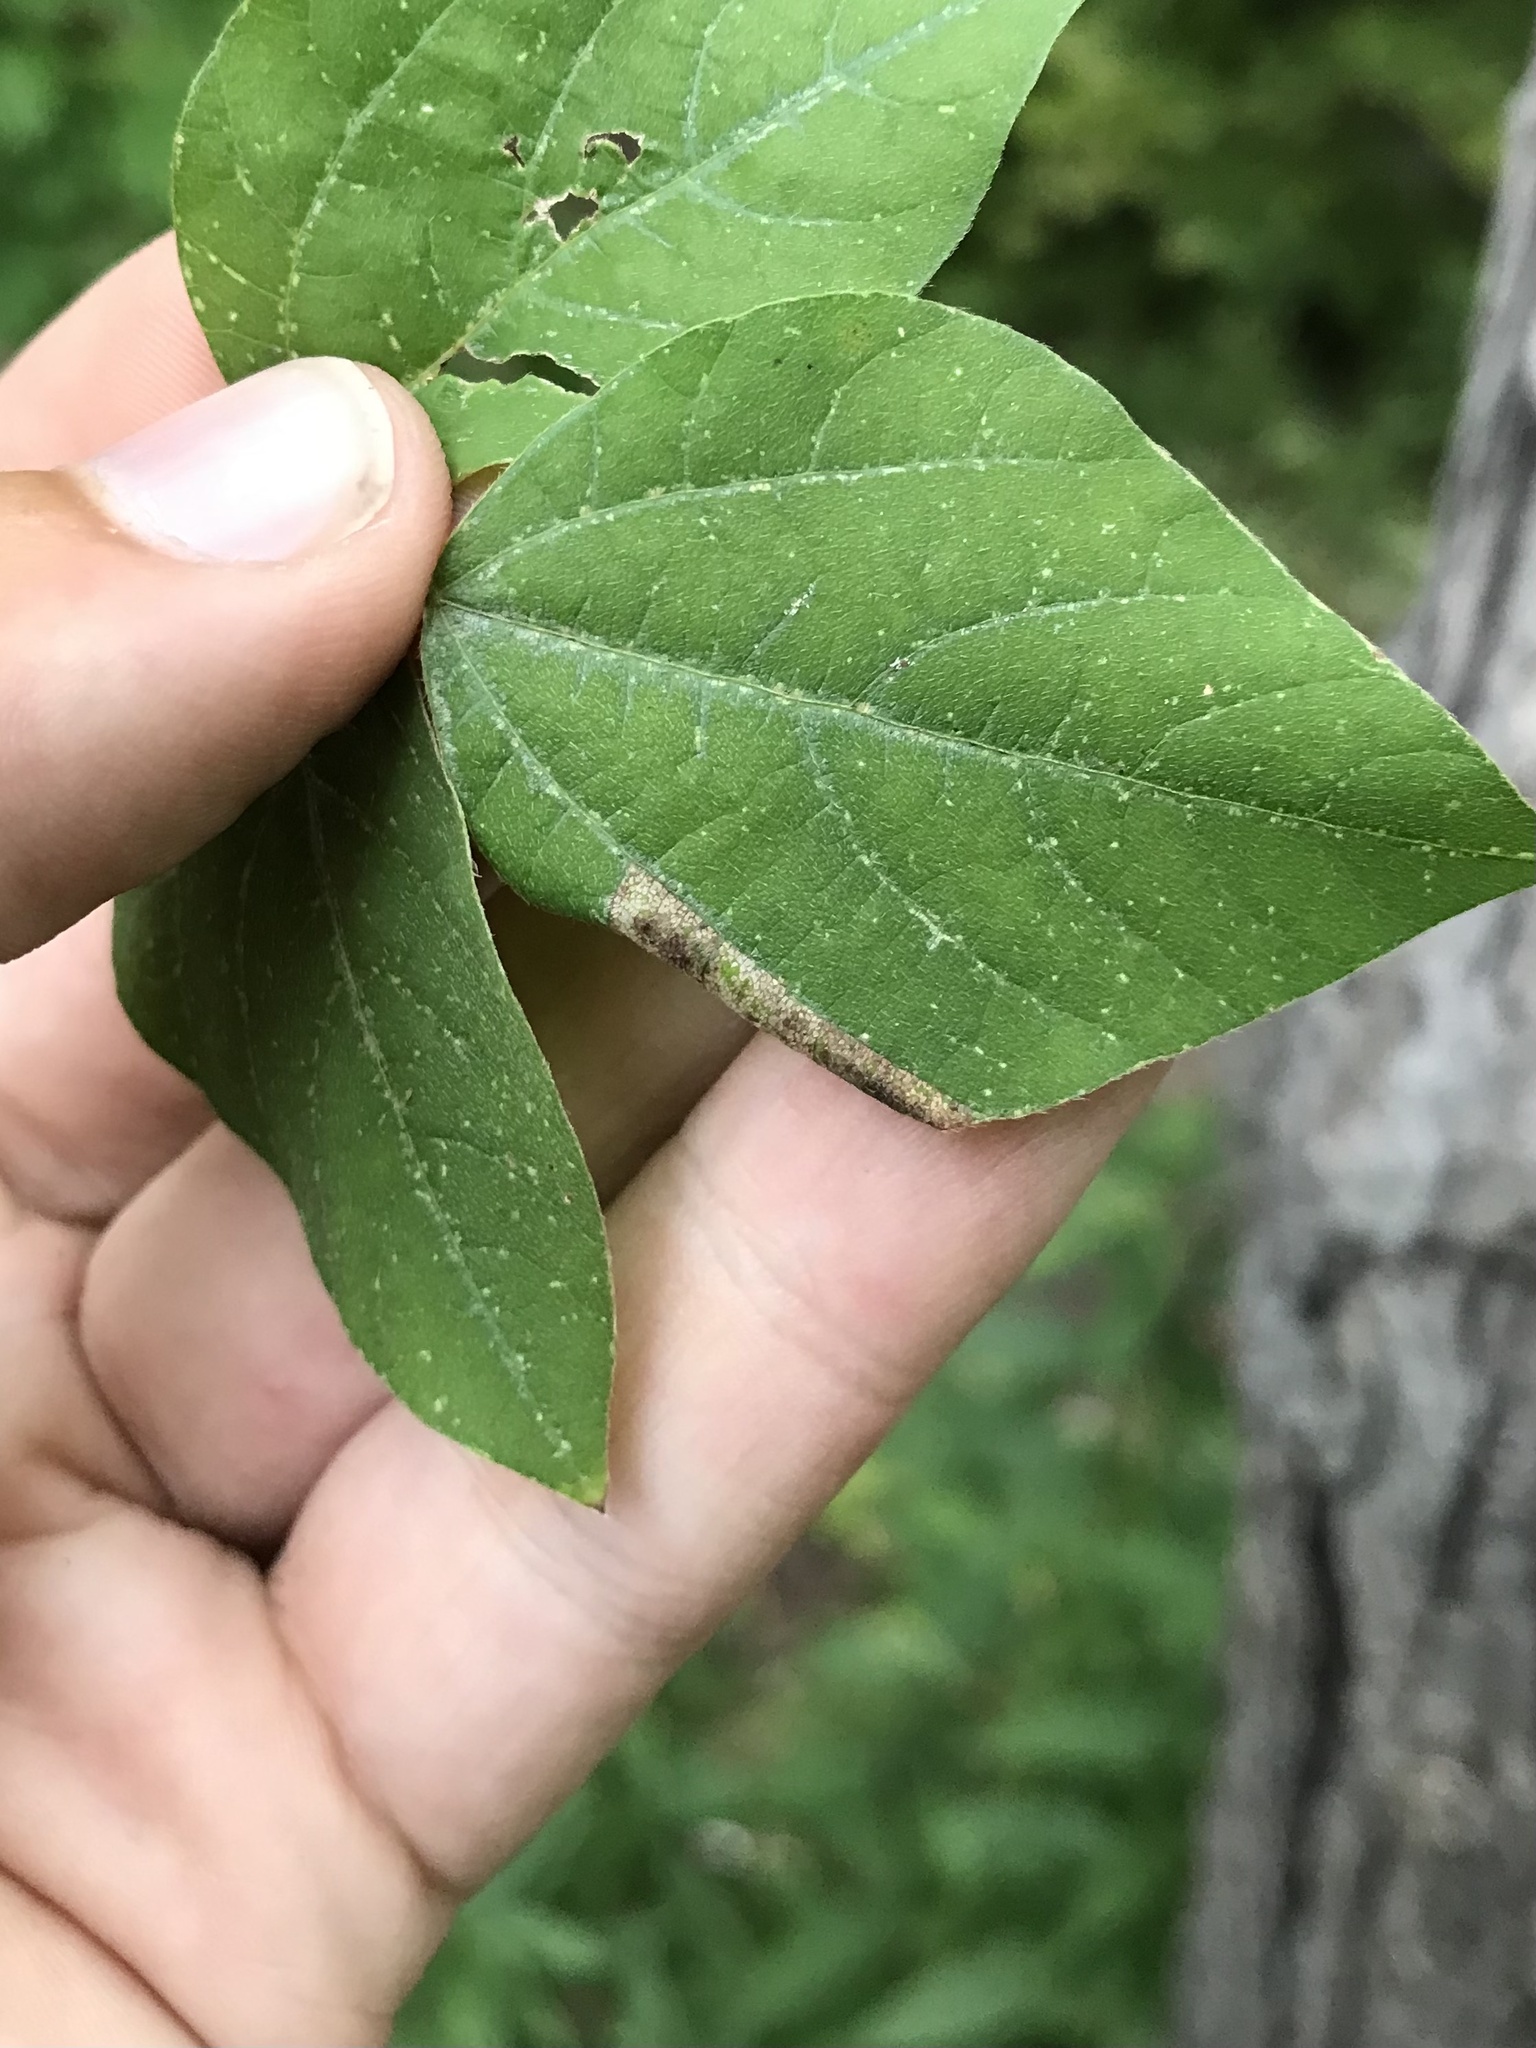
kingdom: Animalia
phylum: Arthropoda
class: Insecta
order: Lepidoptera
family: Gracillariidae
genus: Macrosaccus
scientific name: Macrosaccus morrisella
